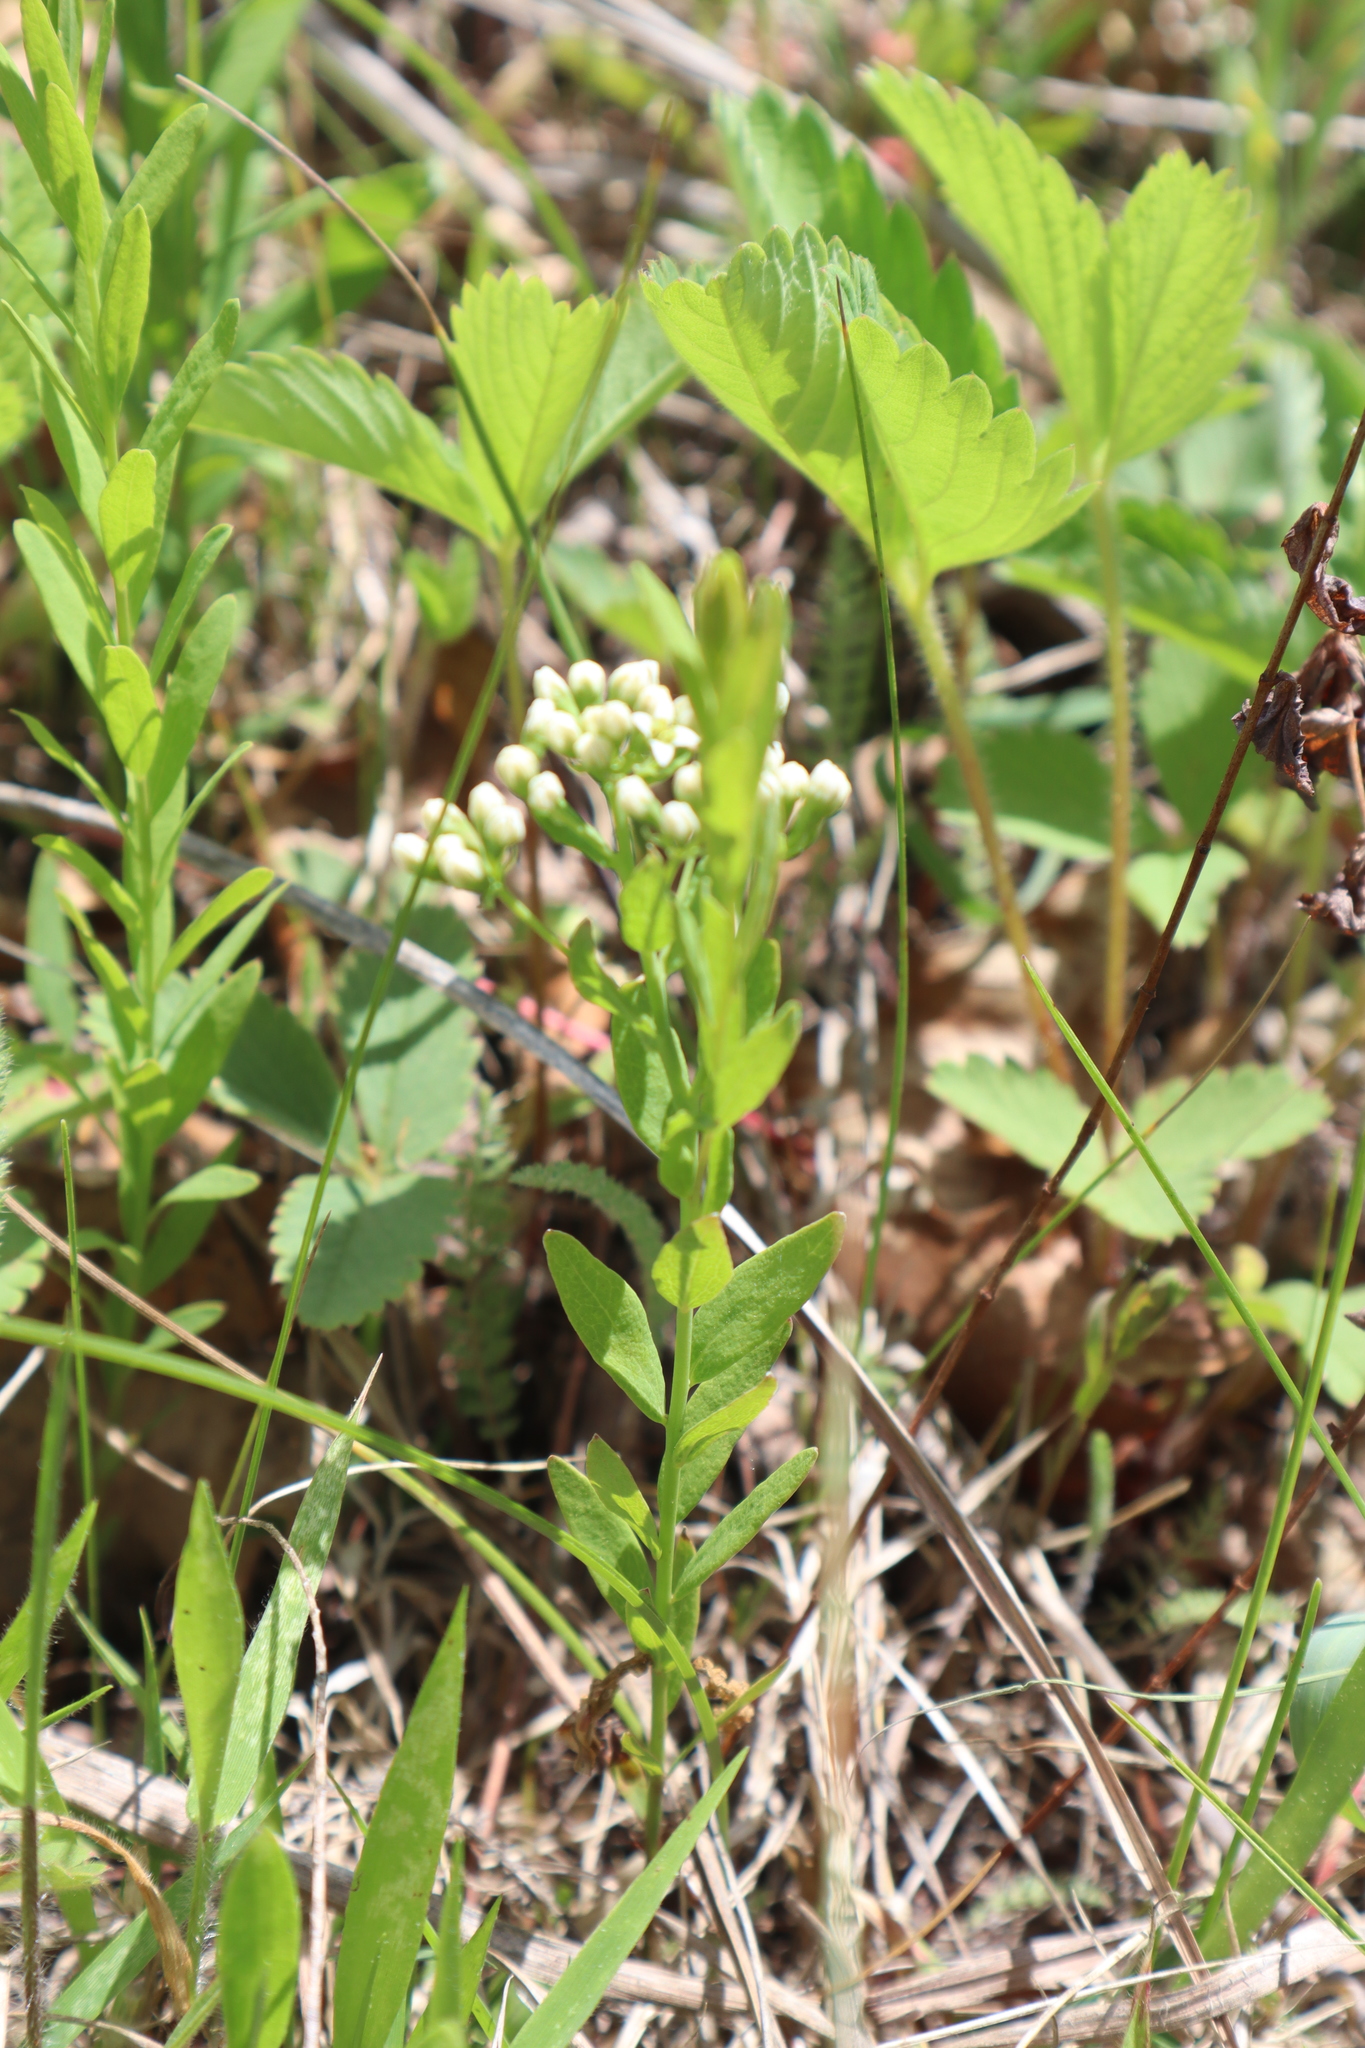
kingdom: Plantae
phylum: Tracheophyta
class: Magnoliopsida
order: Santalales
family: Comandraceae
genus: Comandra
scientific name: Comandra umbellata
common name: Bastard toadflax
